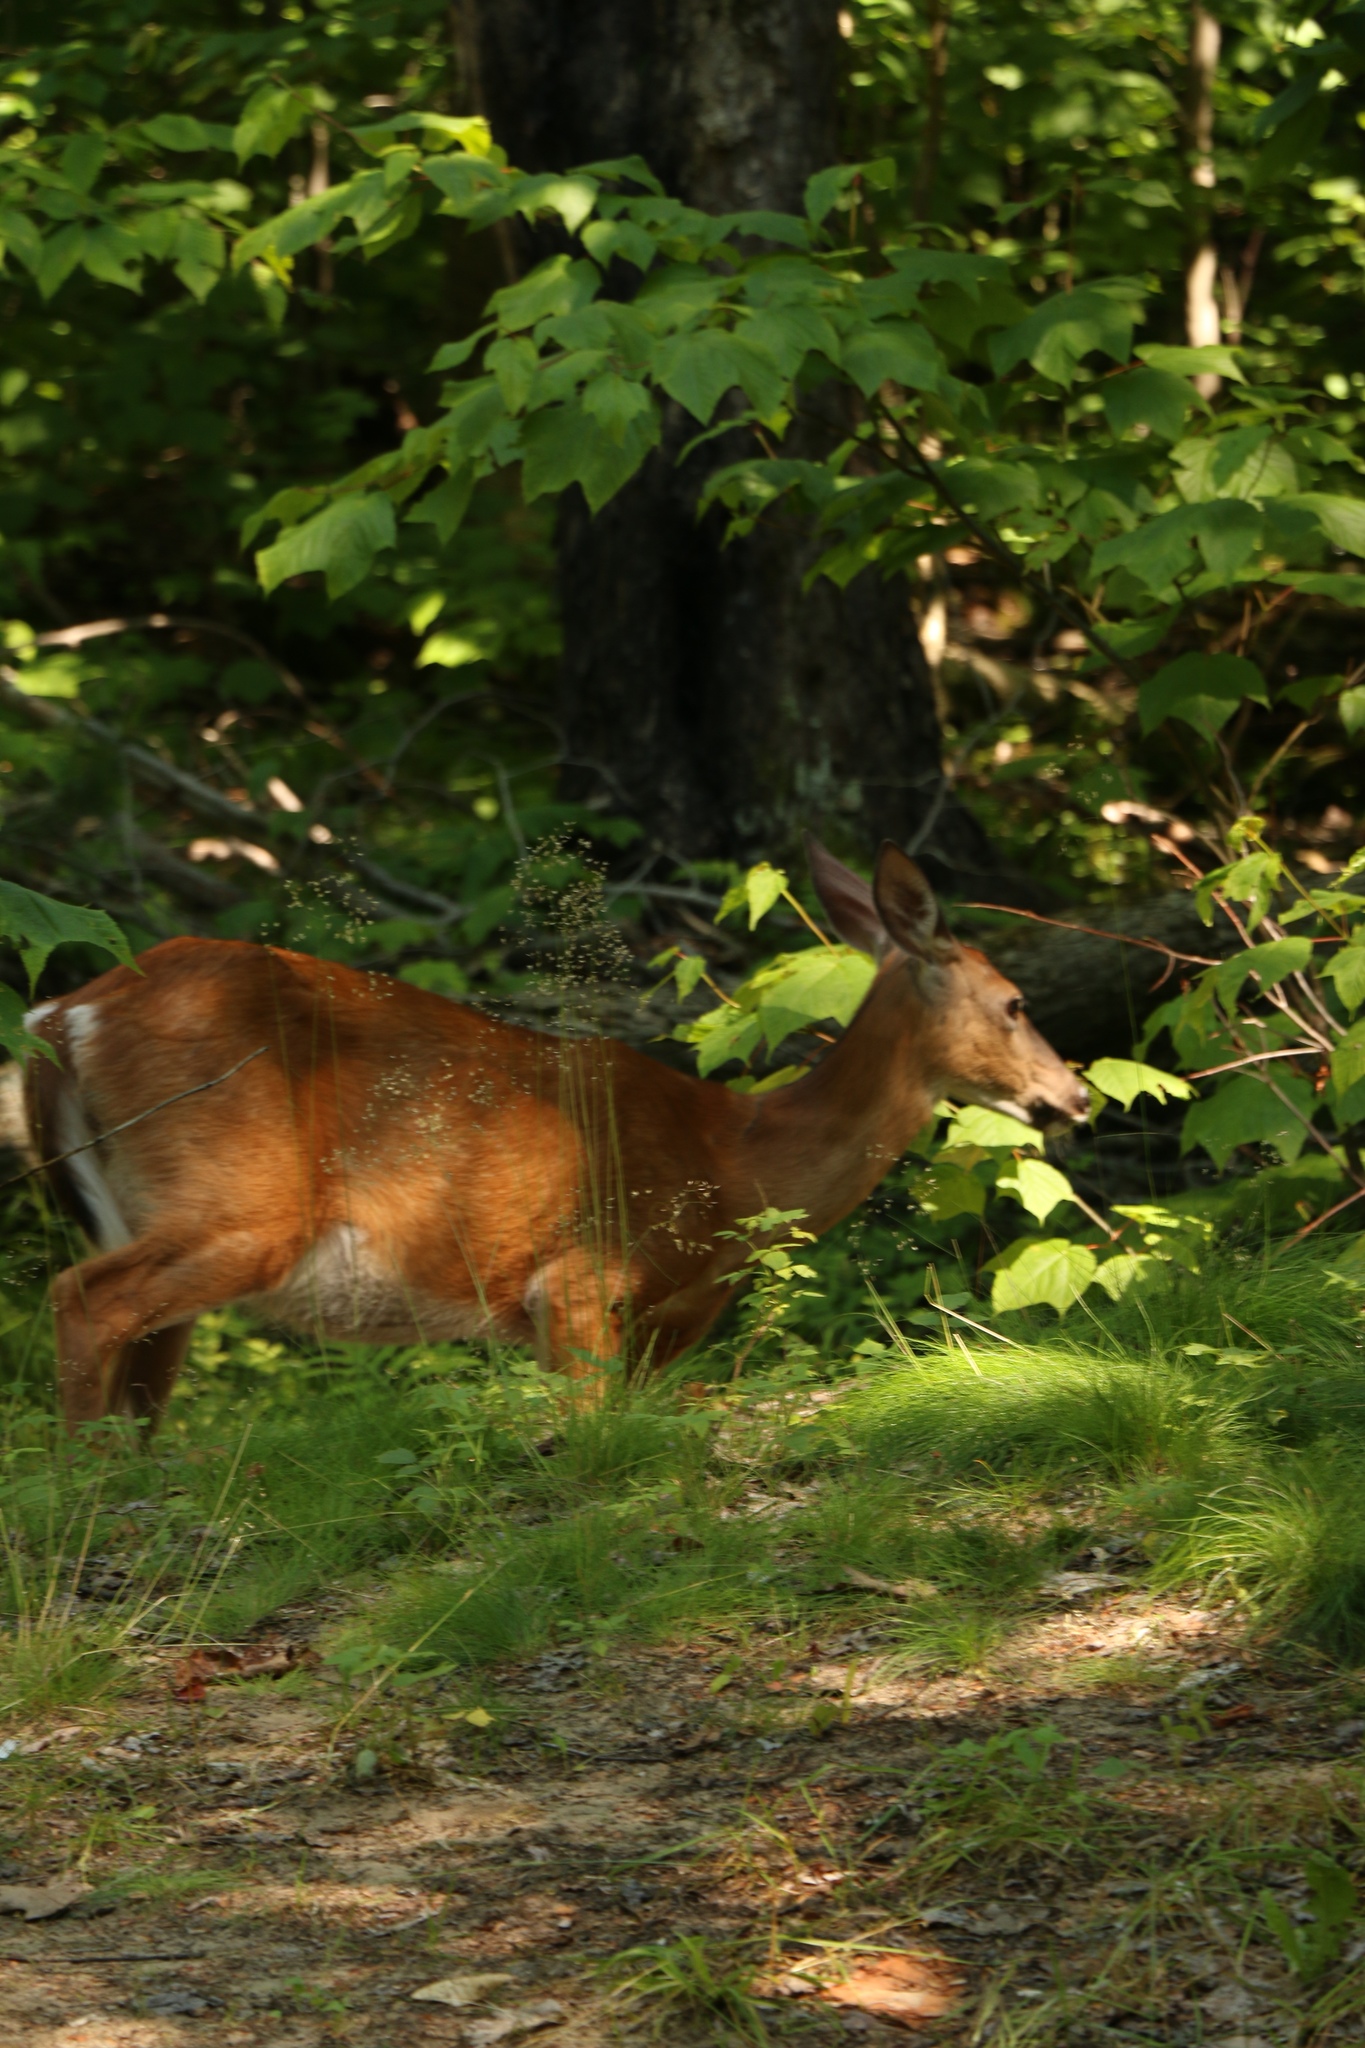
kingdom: Animalia
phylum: Chordata
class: Mammalia
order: Artiodactyla
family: Cervidae
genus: Odocoileus
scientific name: Odocoileus virginianus
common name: White-tailed deer
